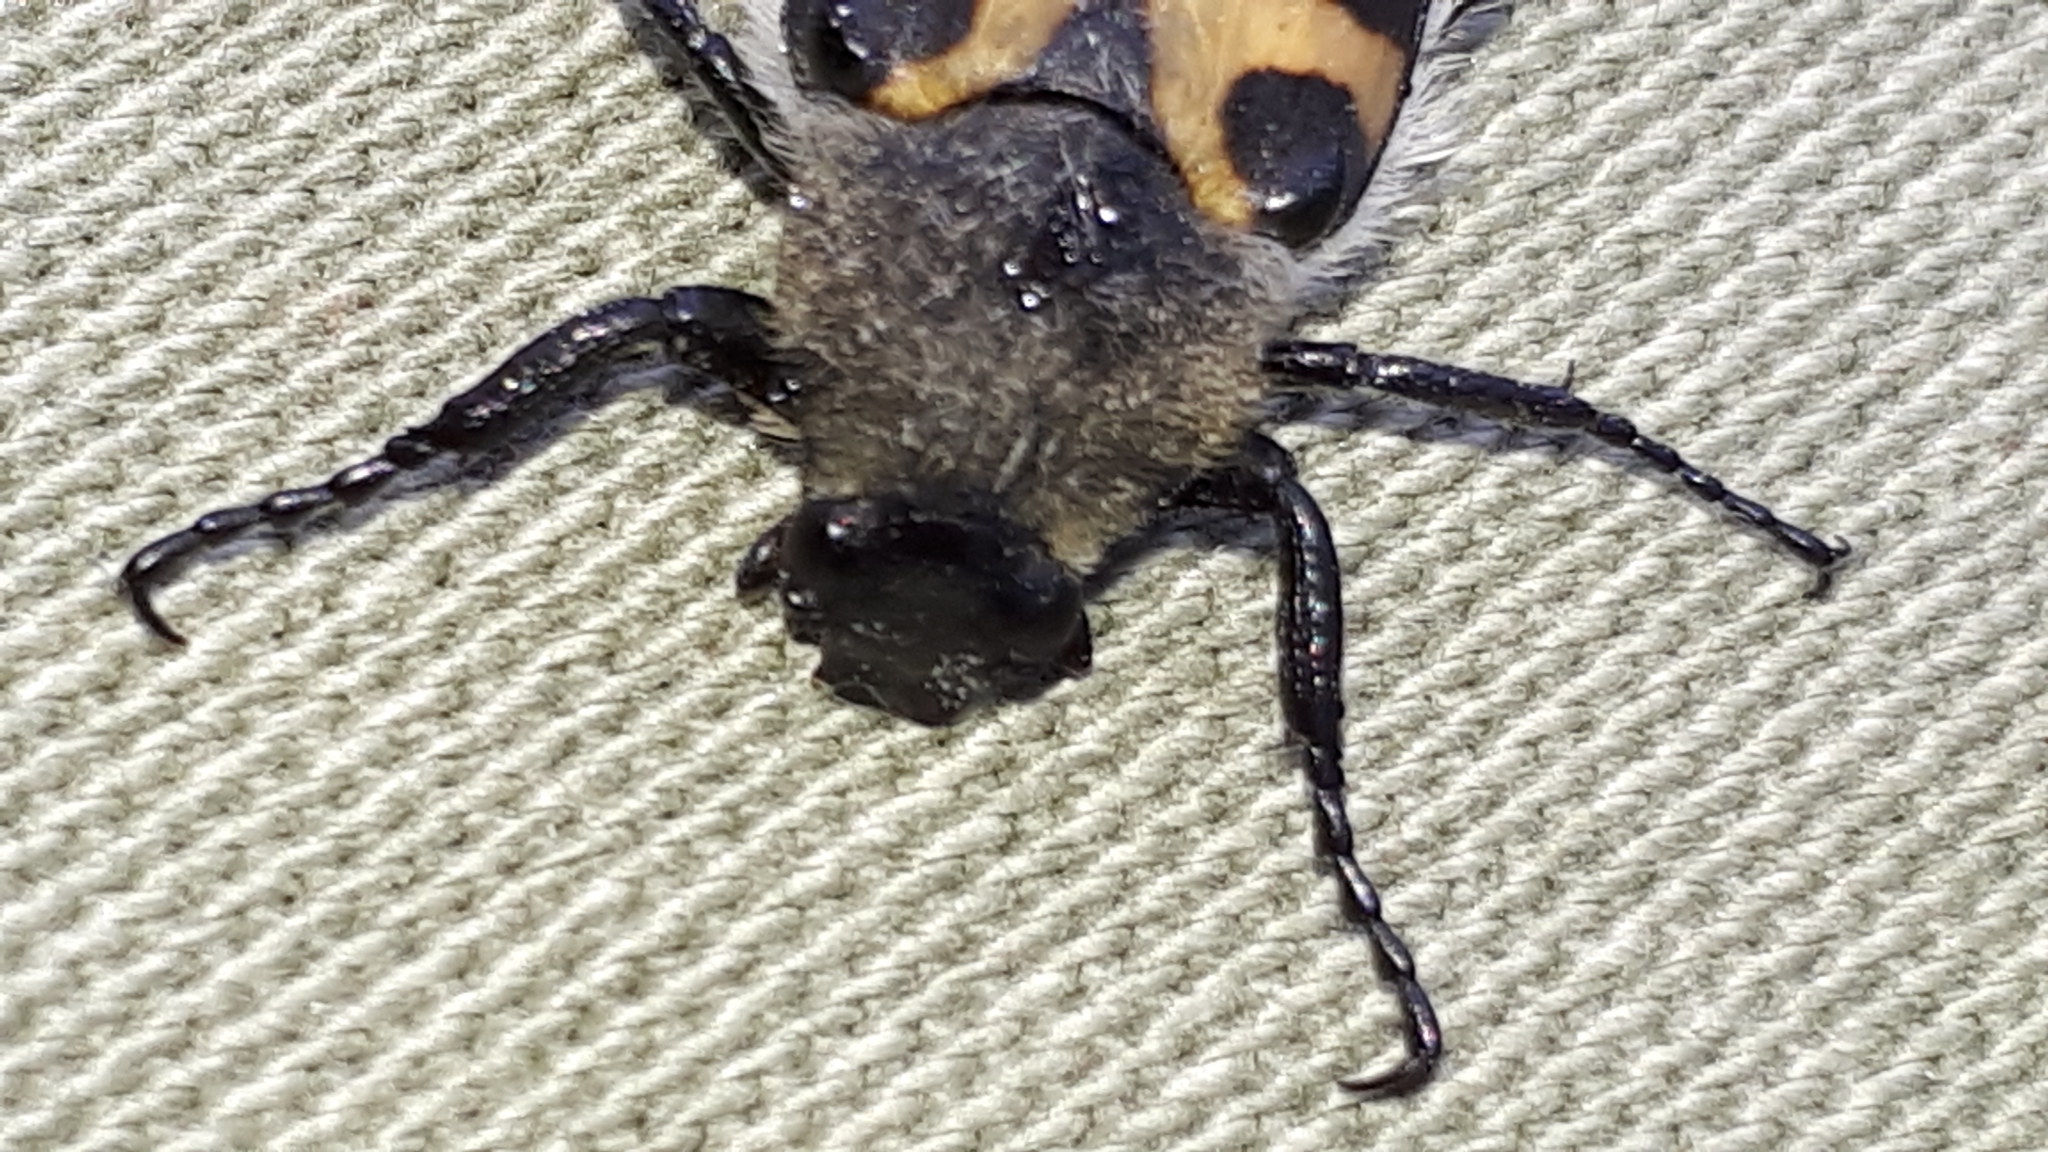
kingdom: Animalia
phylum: Arthropoda
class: Insecta
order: Coleoptera
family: Scarabaeidae
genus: Trichius
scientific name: Trichius gallicus
